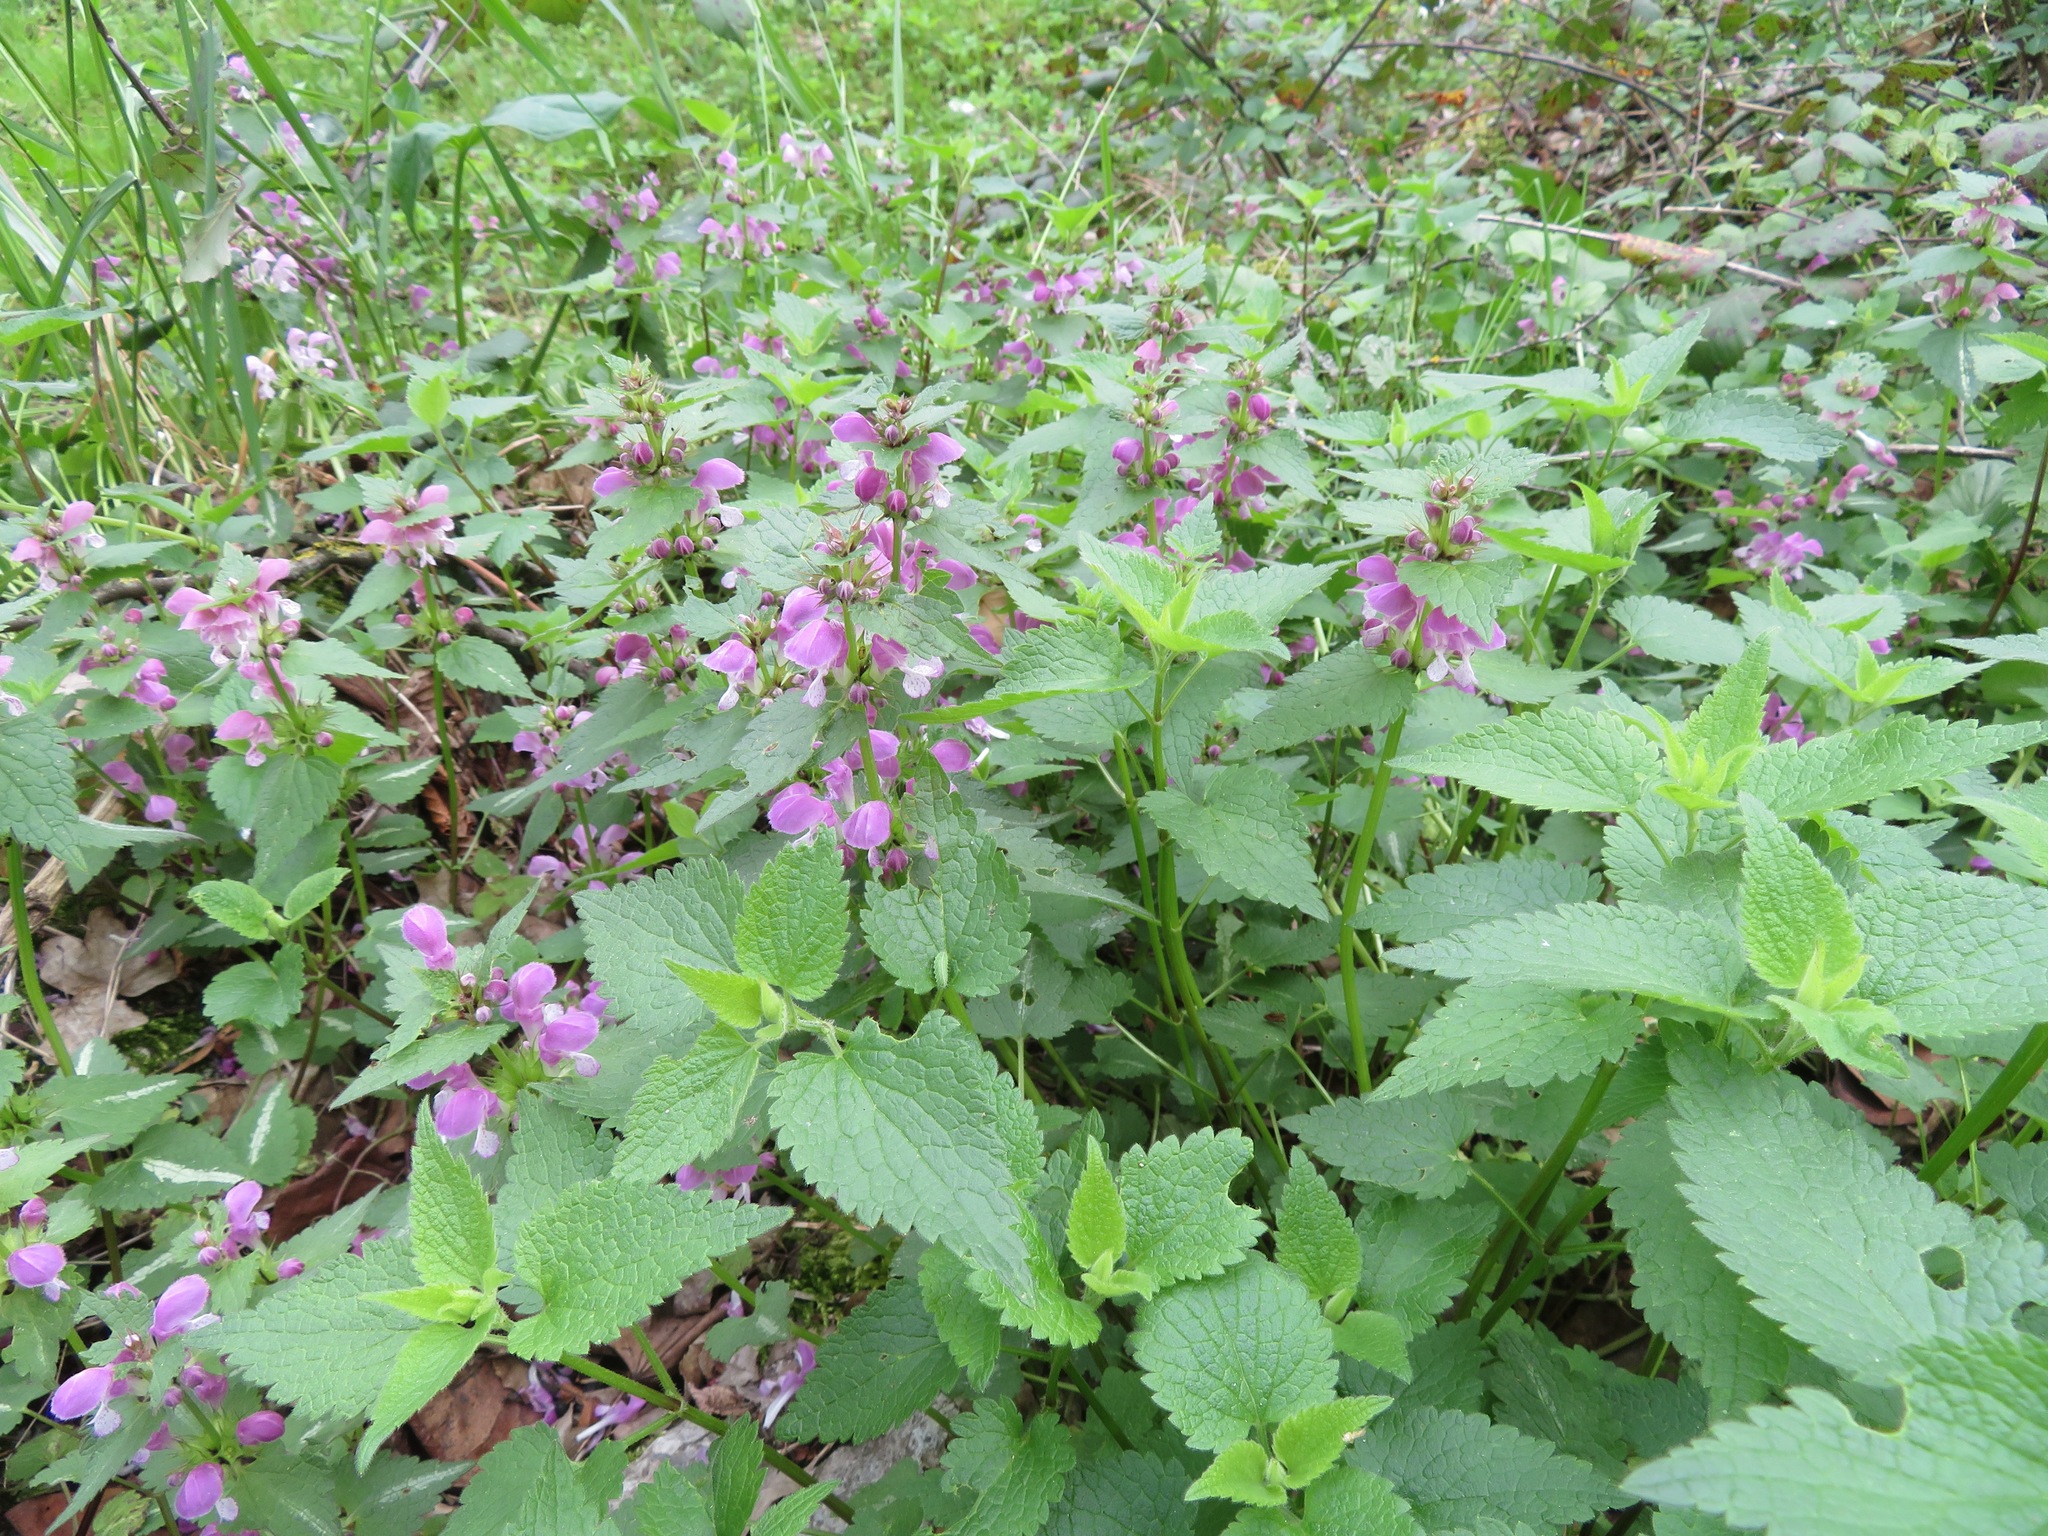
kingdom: Plantae
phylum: Tracheophyta
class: Magnoliopsida
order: Lamiales
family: Lamiaceae
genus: Lamium
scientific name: Lamium maculatum
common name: Spotted dead-nettle
